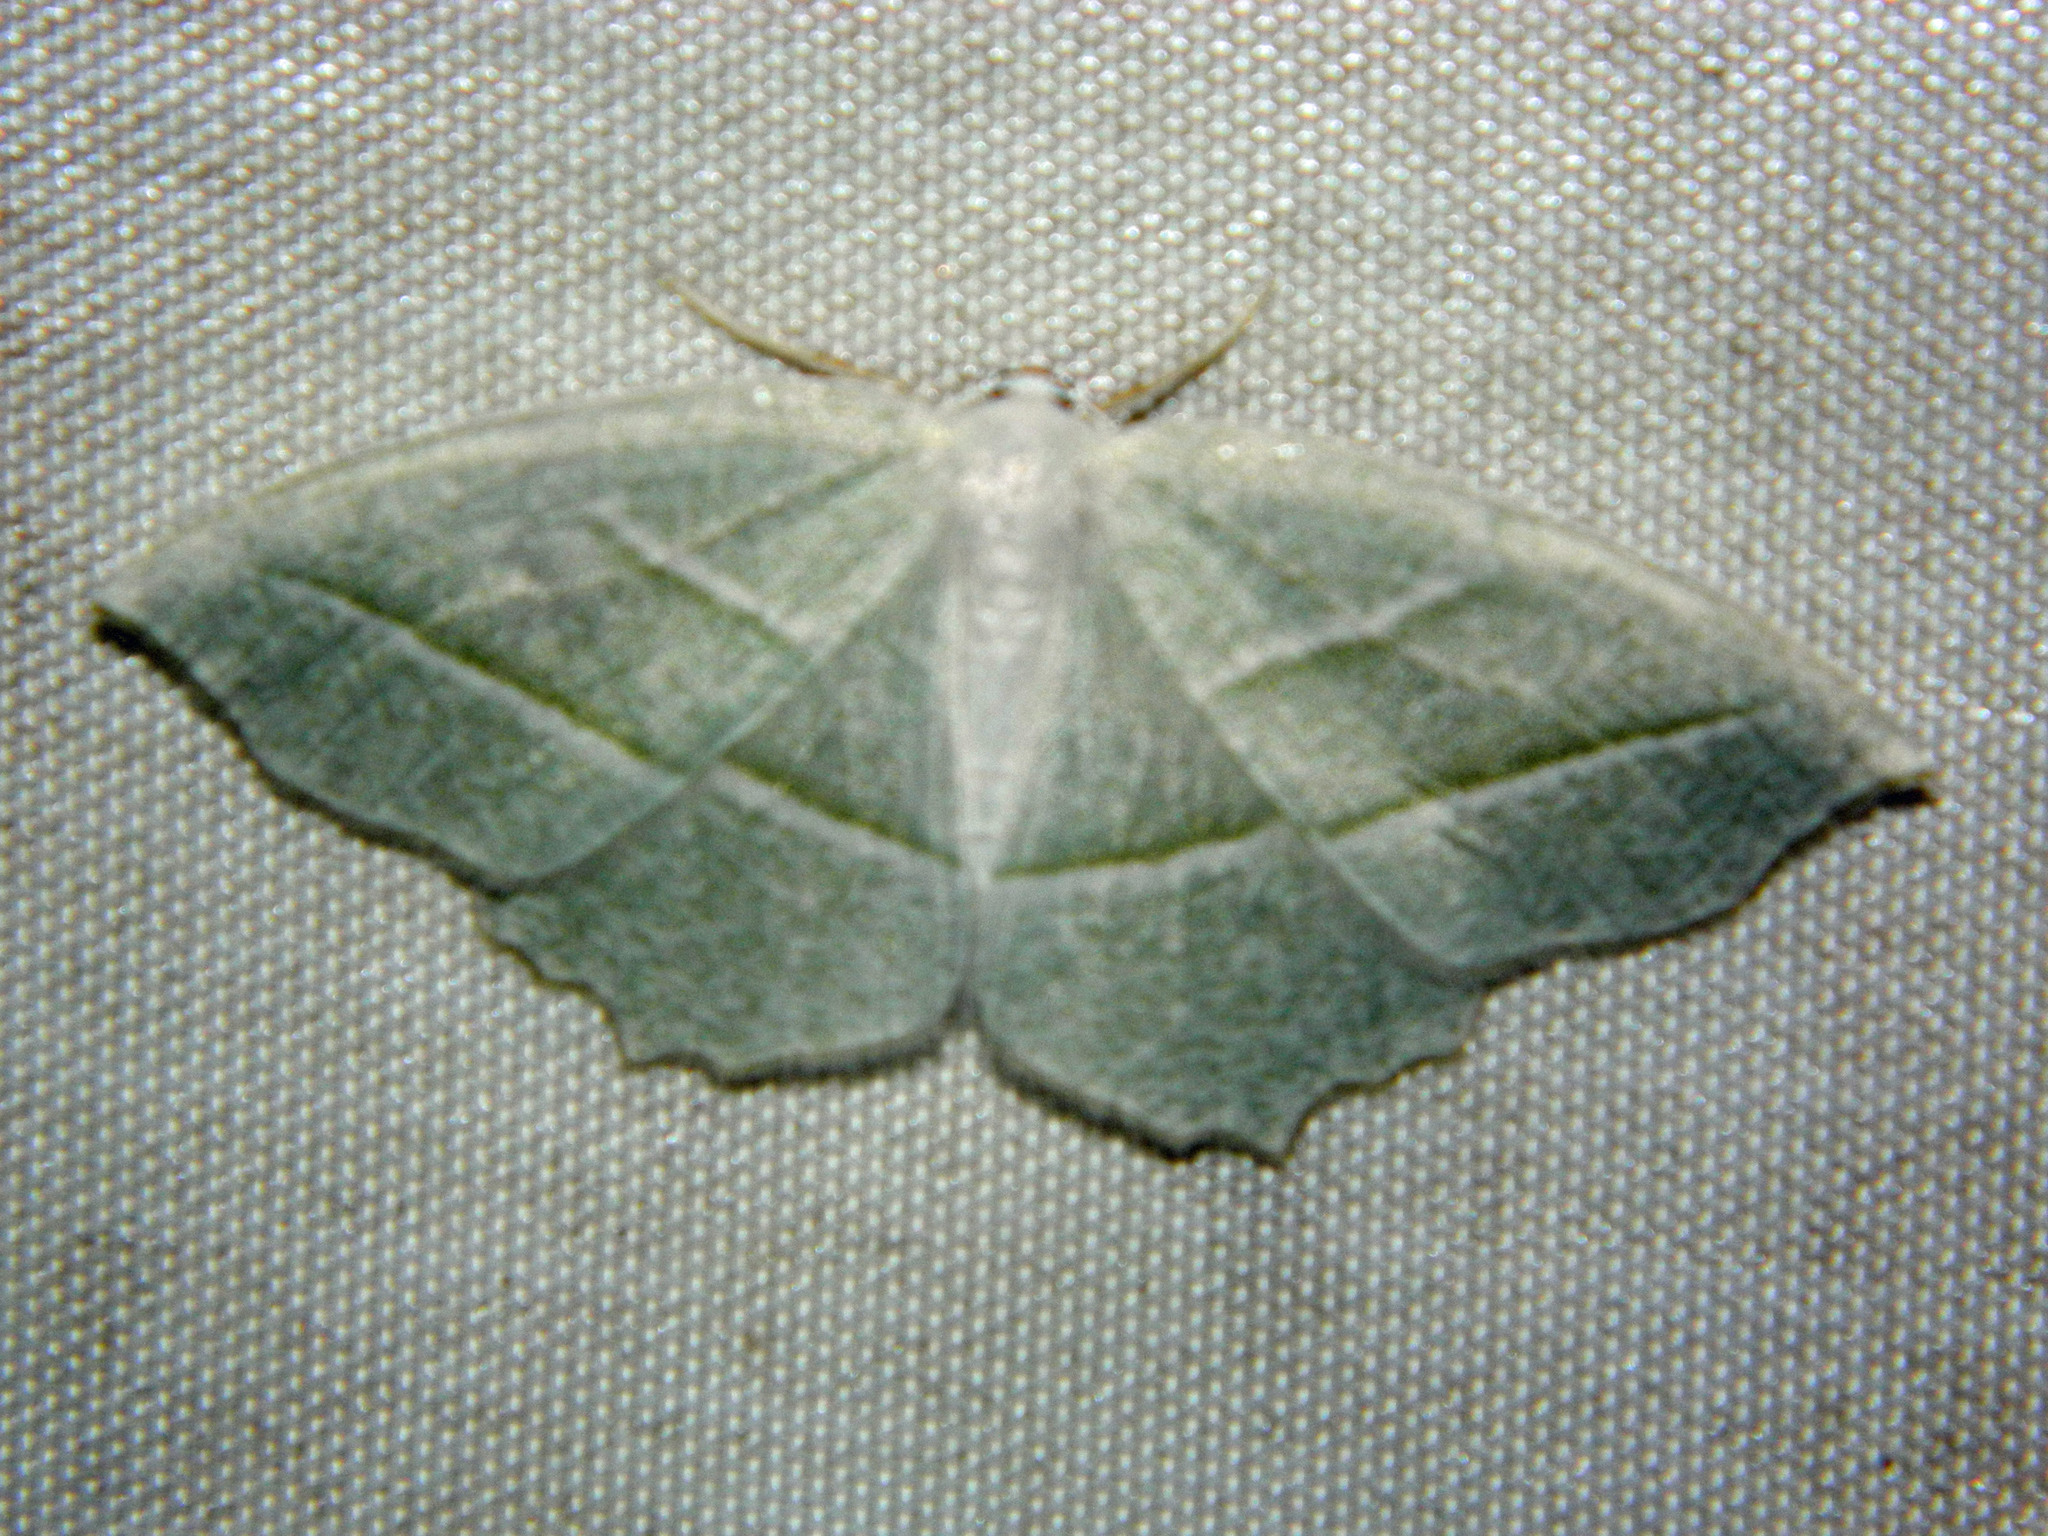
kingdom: Animalia
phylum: Arthropoda
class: Insecta
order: Lepidoptera
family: Geometridae
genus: Campaea
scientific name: Campaea perlata
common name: Fringed looper
